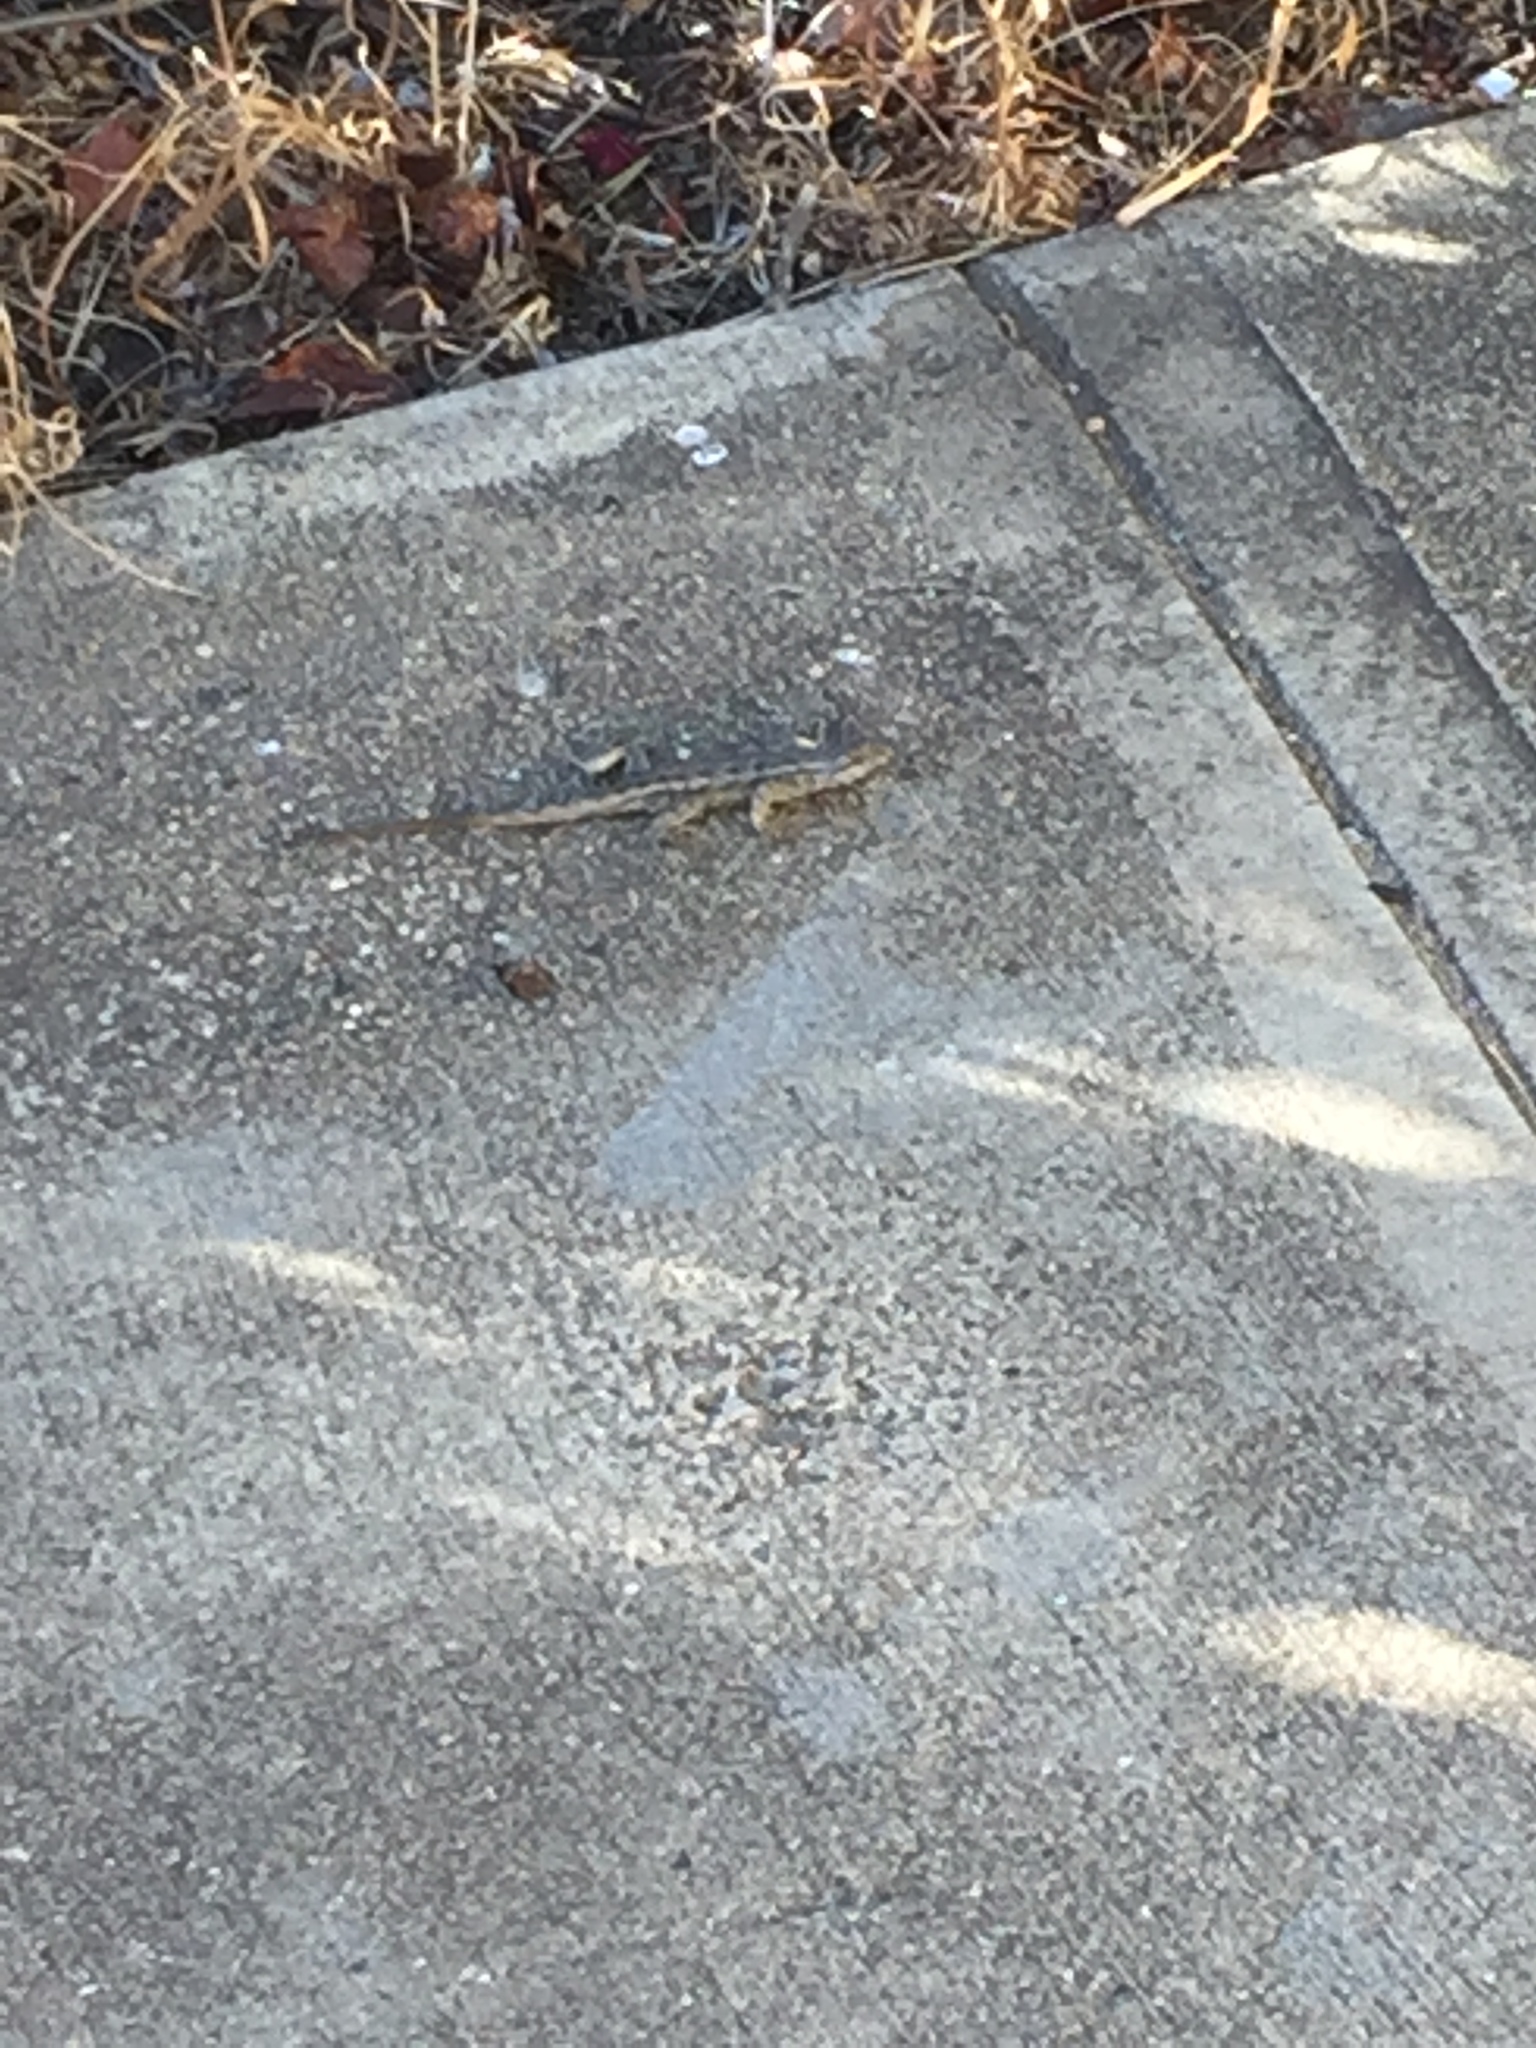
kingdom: Animalia
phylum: Chordata
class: Squamata
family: Phrynosomatidae
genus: Sceloporus
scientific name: Sceloporus occidentalis
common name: Western fence lizard
